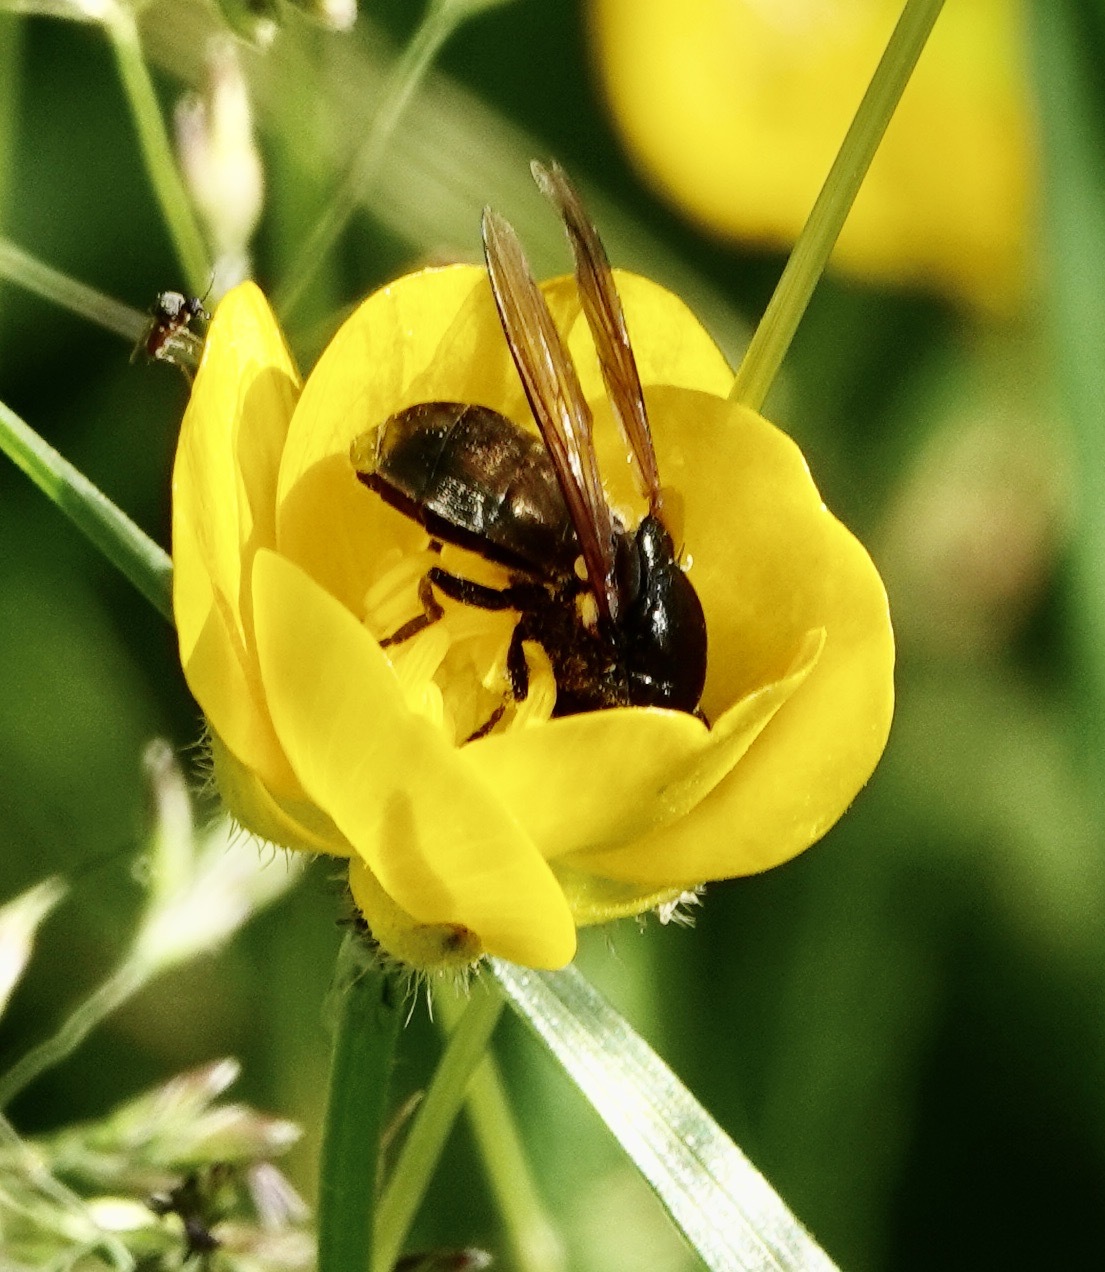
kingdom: Animalia
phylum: Arthropoda
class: Insecta
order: Diptera
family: Syrphidae
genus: Cheilosia
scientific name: Cheilosia
